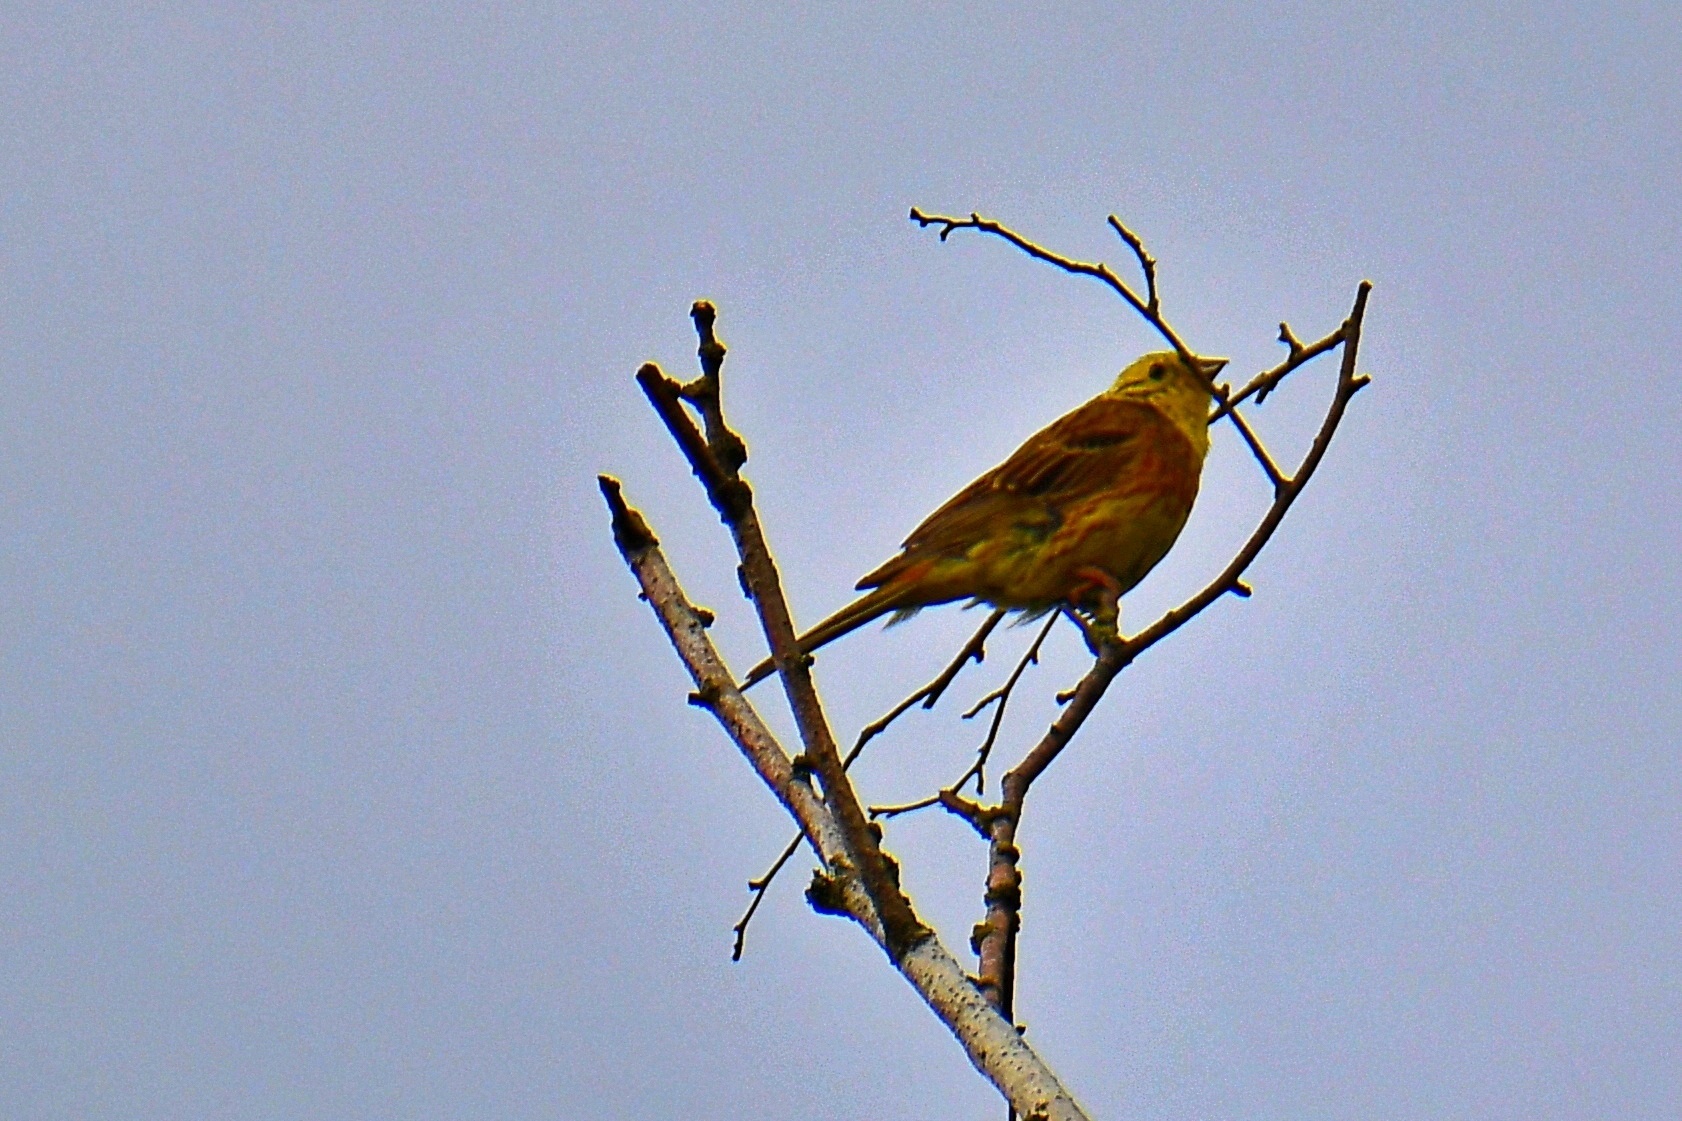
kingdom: Animalia
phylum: Chordata
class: Aves
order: Passeriformes
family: Emberizidae
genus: Emberiza
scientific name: Emberiza citrinella
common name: Yellowhammer
